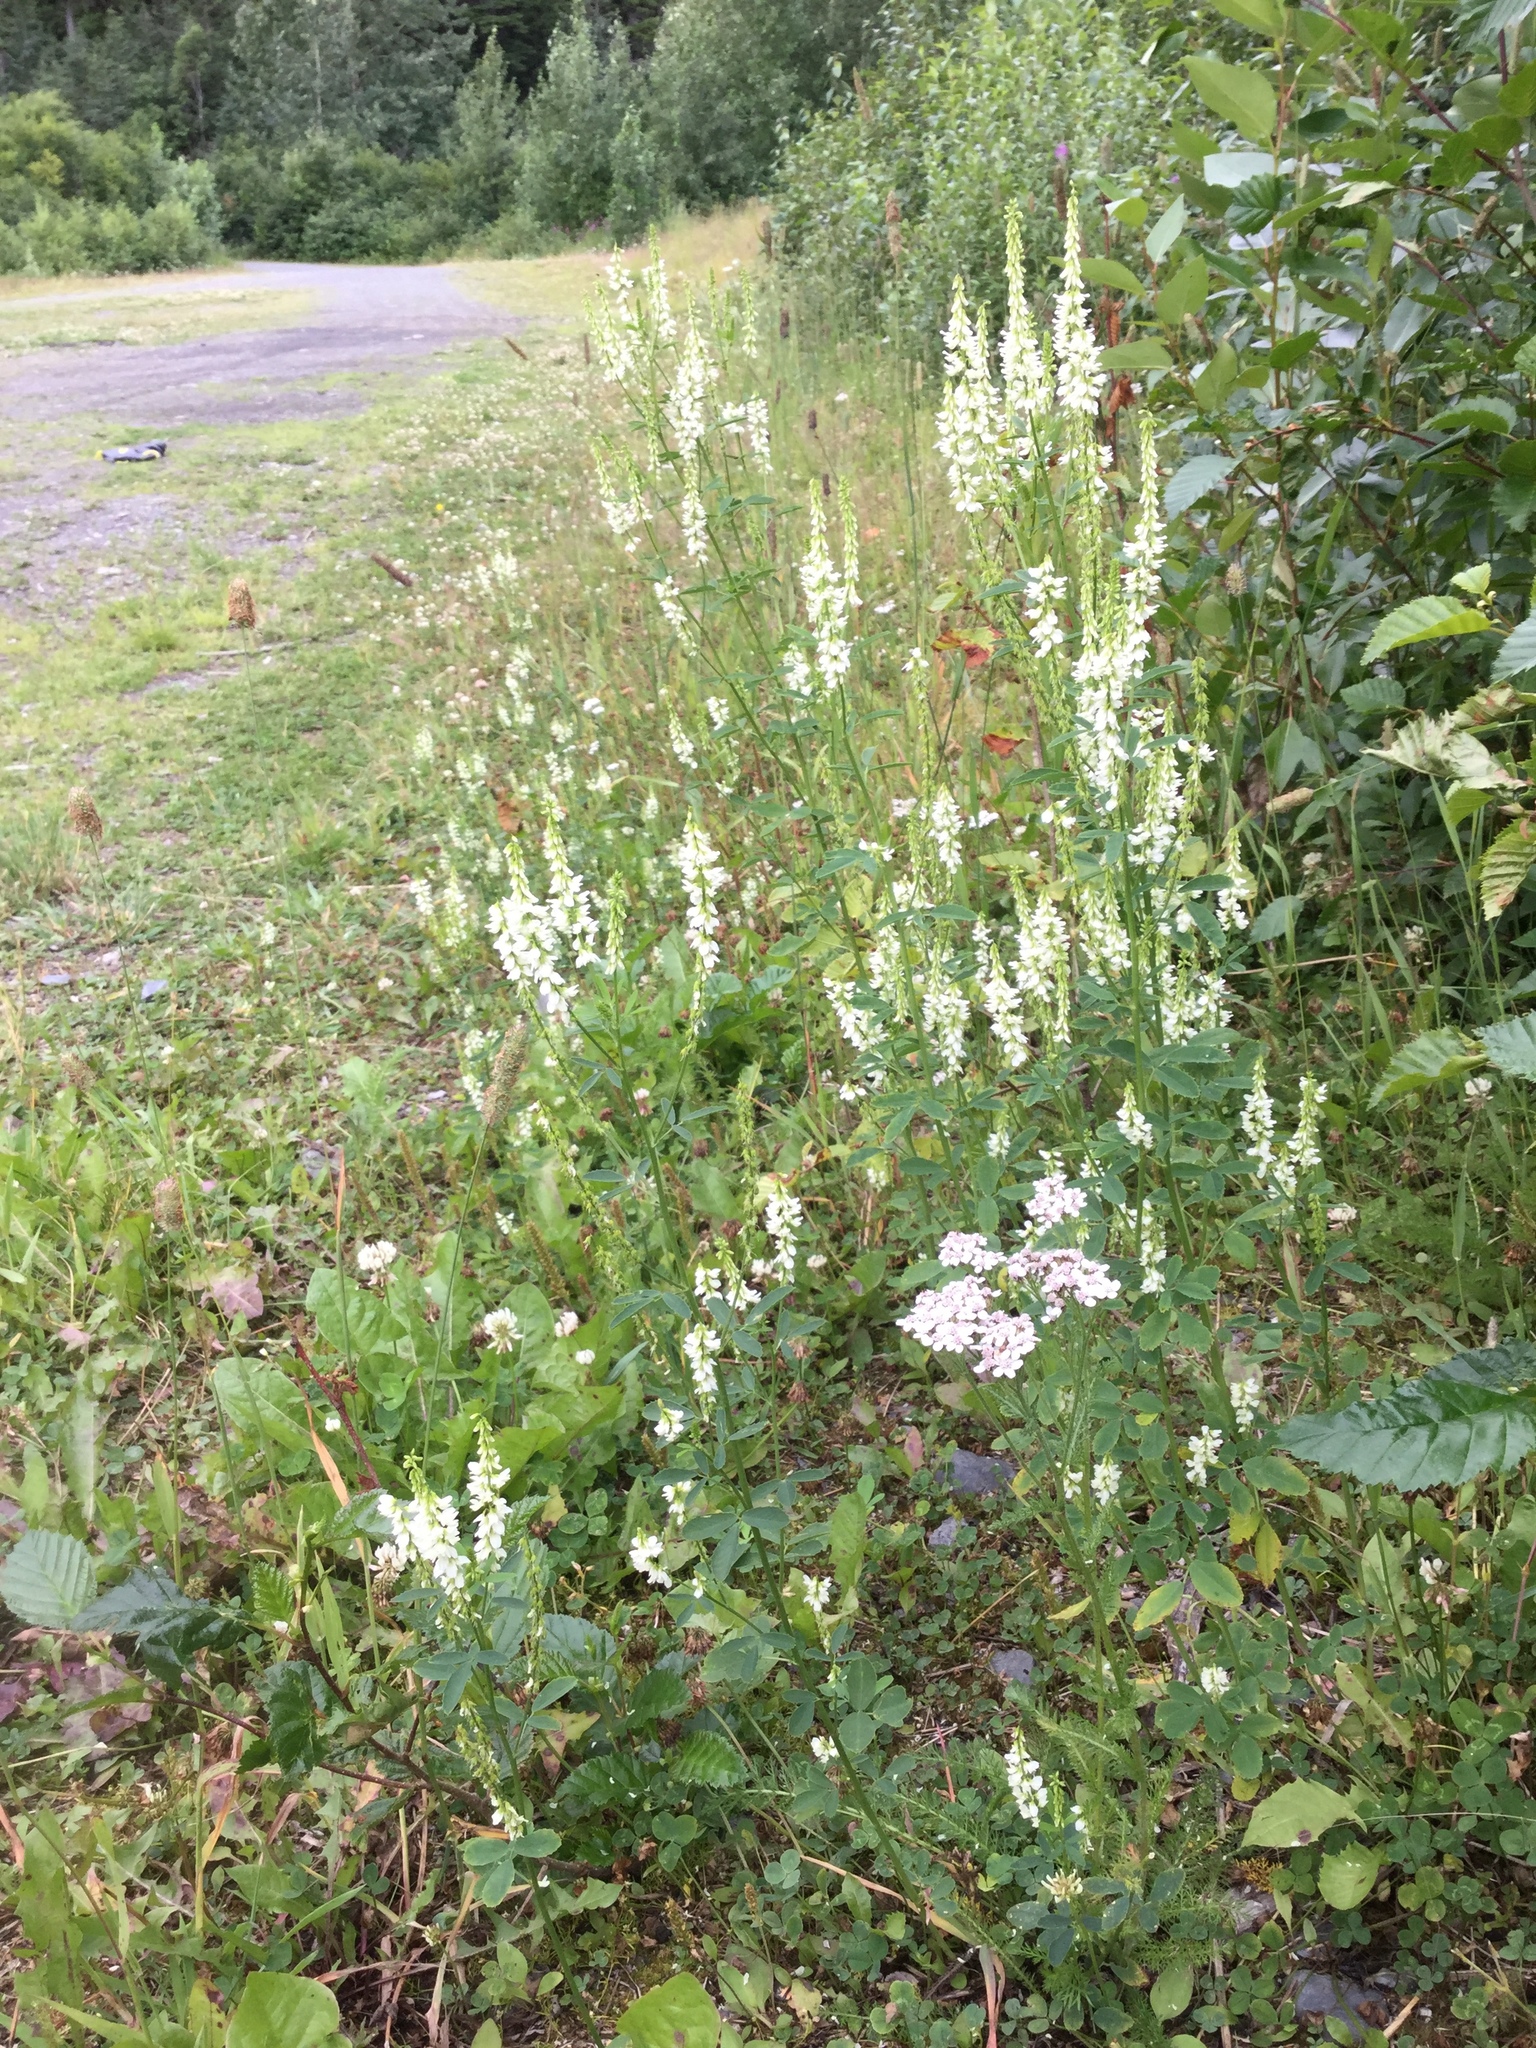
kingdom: Plantae
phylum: Tracheophyta
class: Magnoliopsida
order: Fabales
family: Fabaceae
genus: Melilotus
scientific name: Melilotus albus
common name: White melilot
